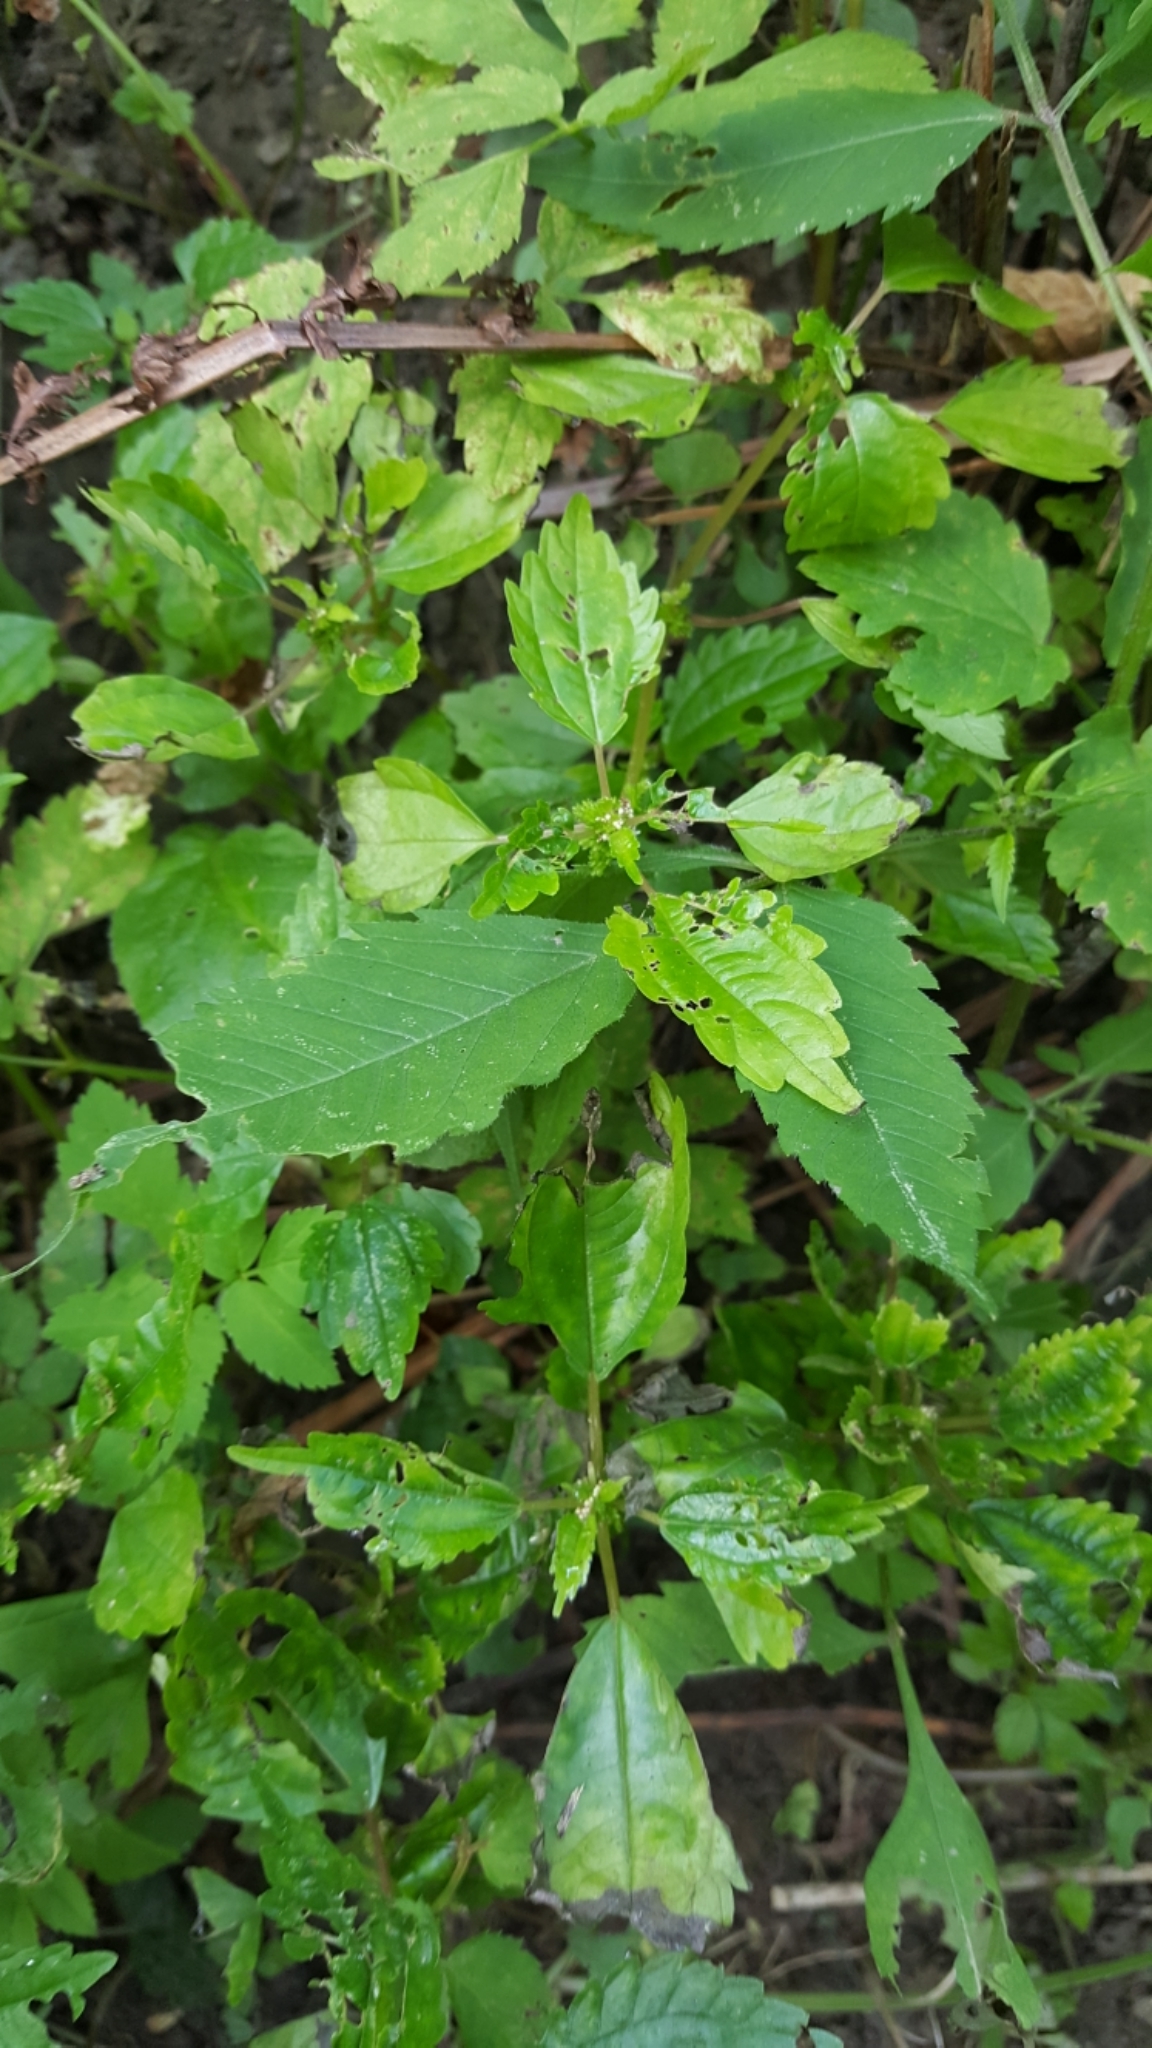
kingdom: Plantae
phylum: Tracheophyta
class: Magnoliopsida
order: Rosales
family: Urticaceae
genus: Pilea
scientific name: Pilea pumila
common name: Clearweed
